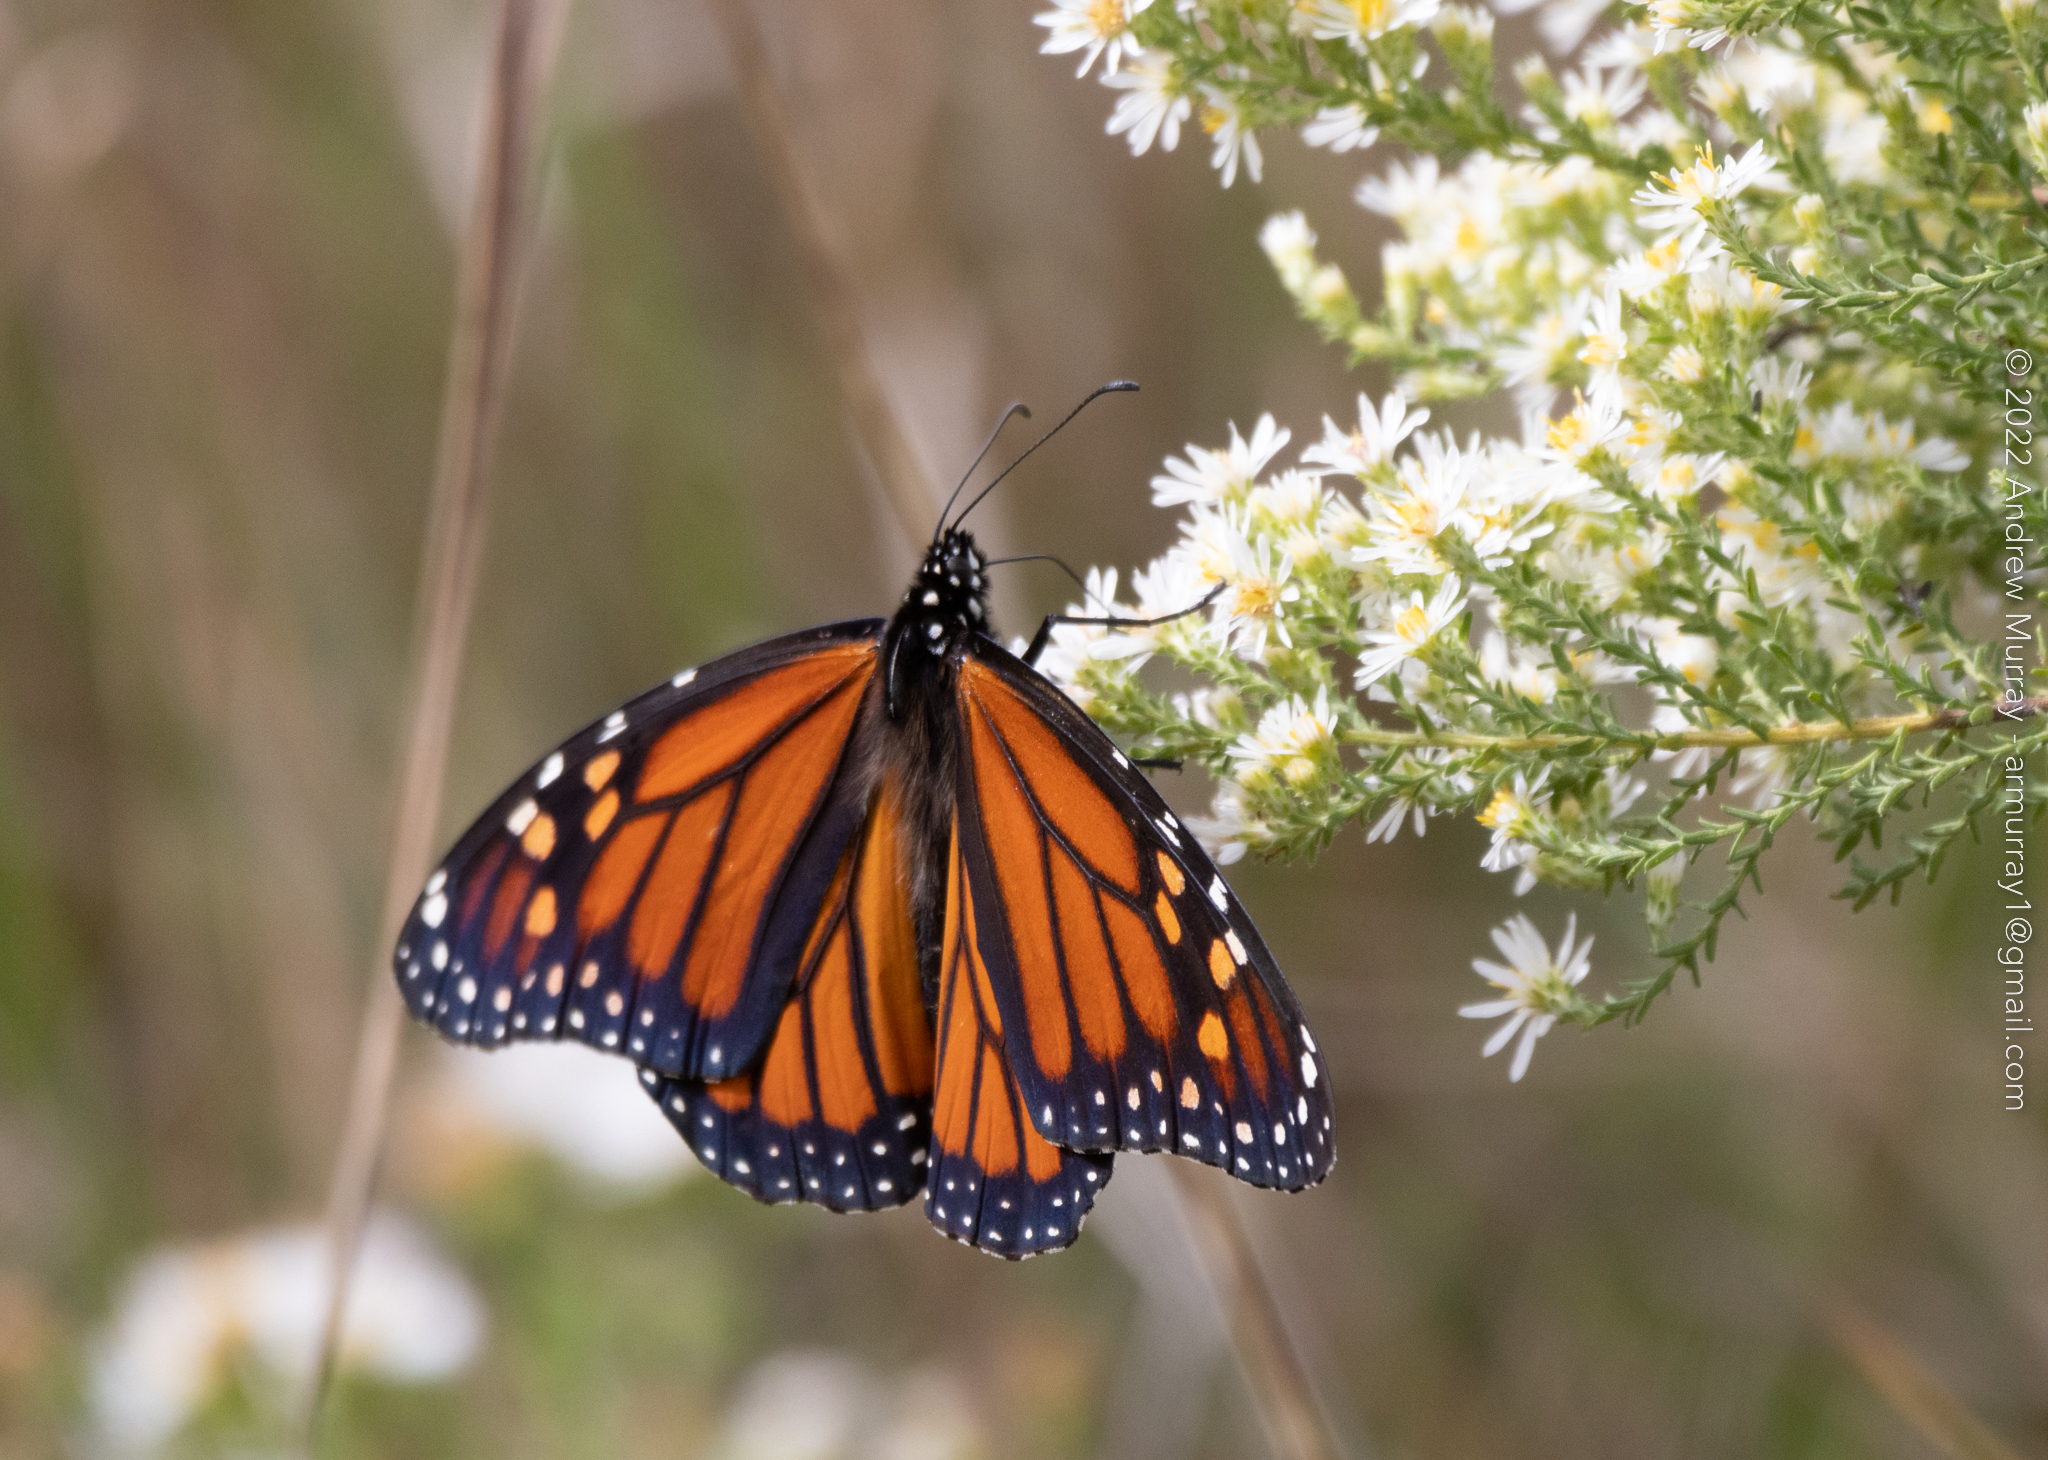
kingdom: Animalia
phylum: Arthropoda
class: Insecta
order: Lepidoptera
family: Nymphalidae
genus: Danaus
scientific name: Danaus plexippus
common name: Monarch
